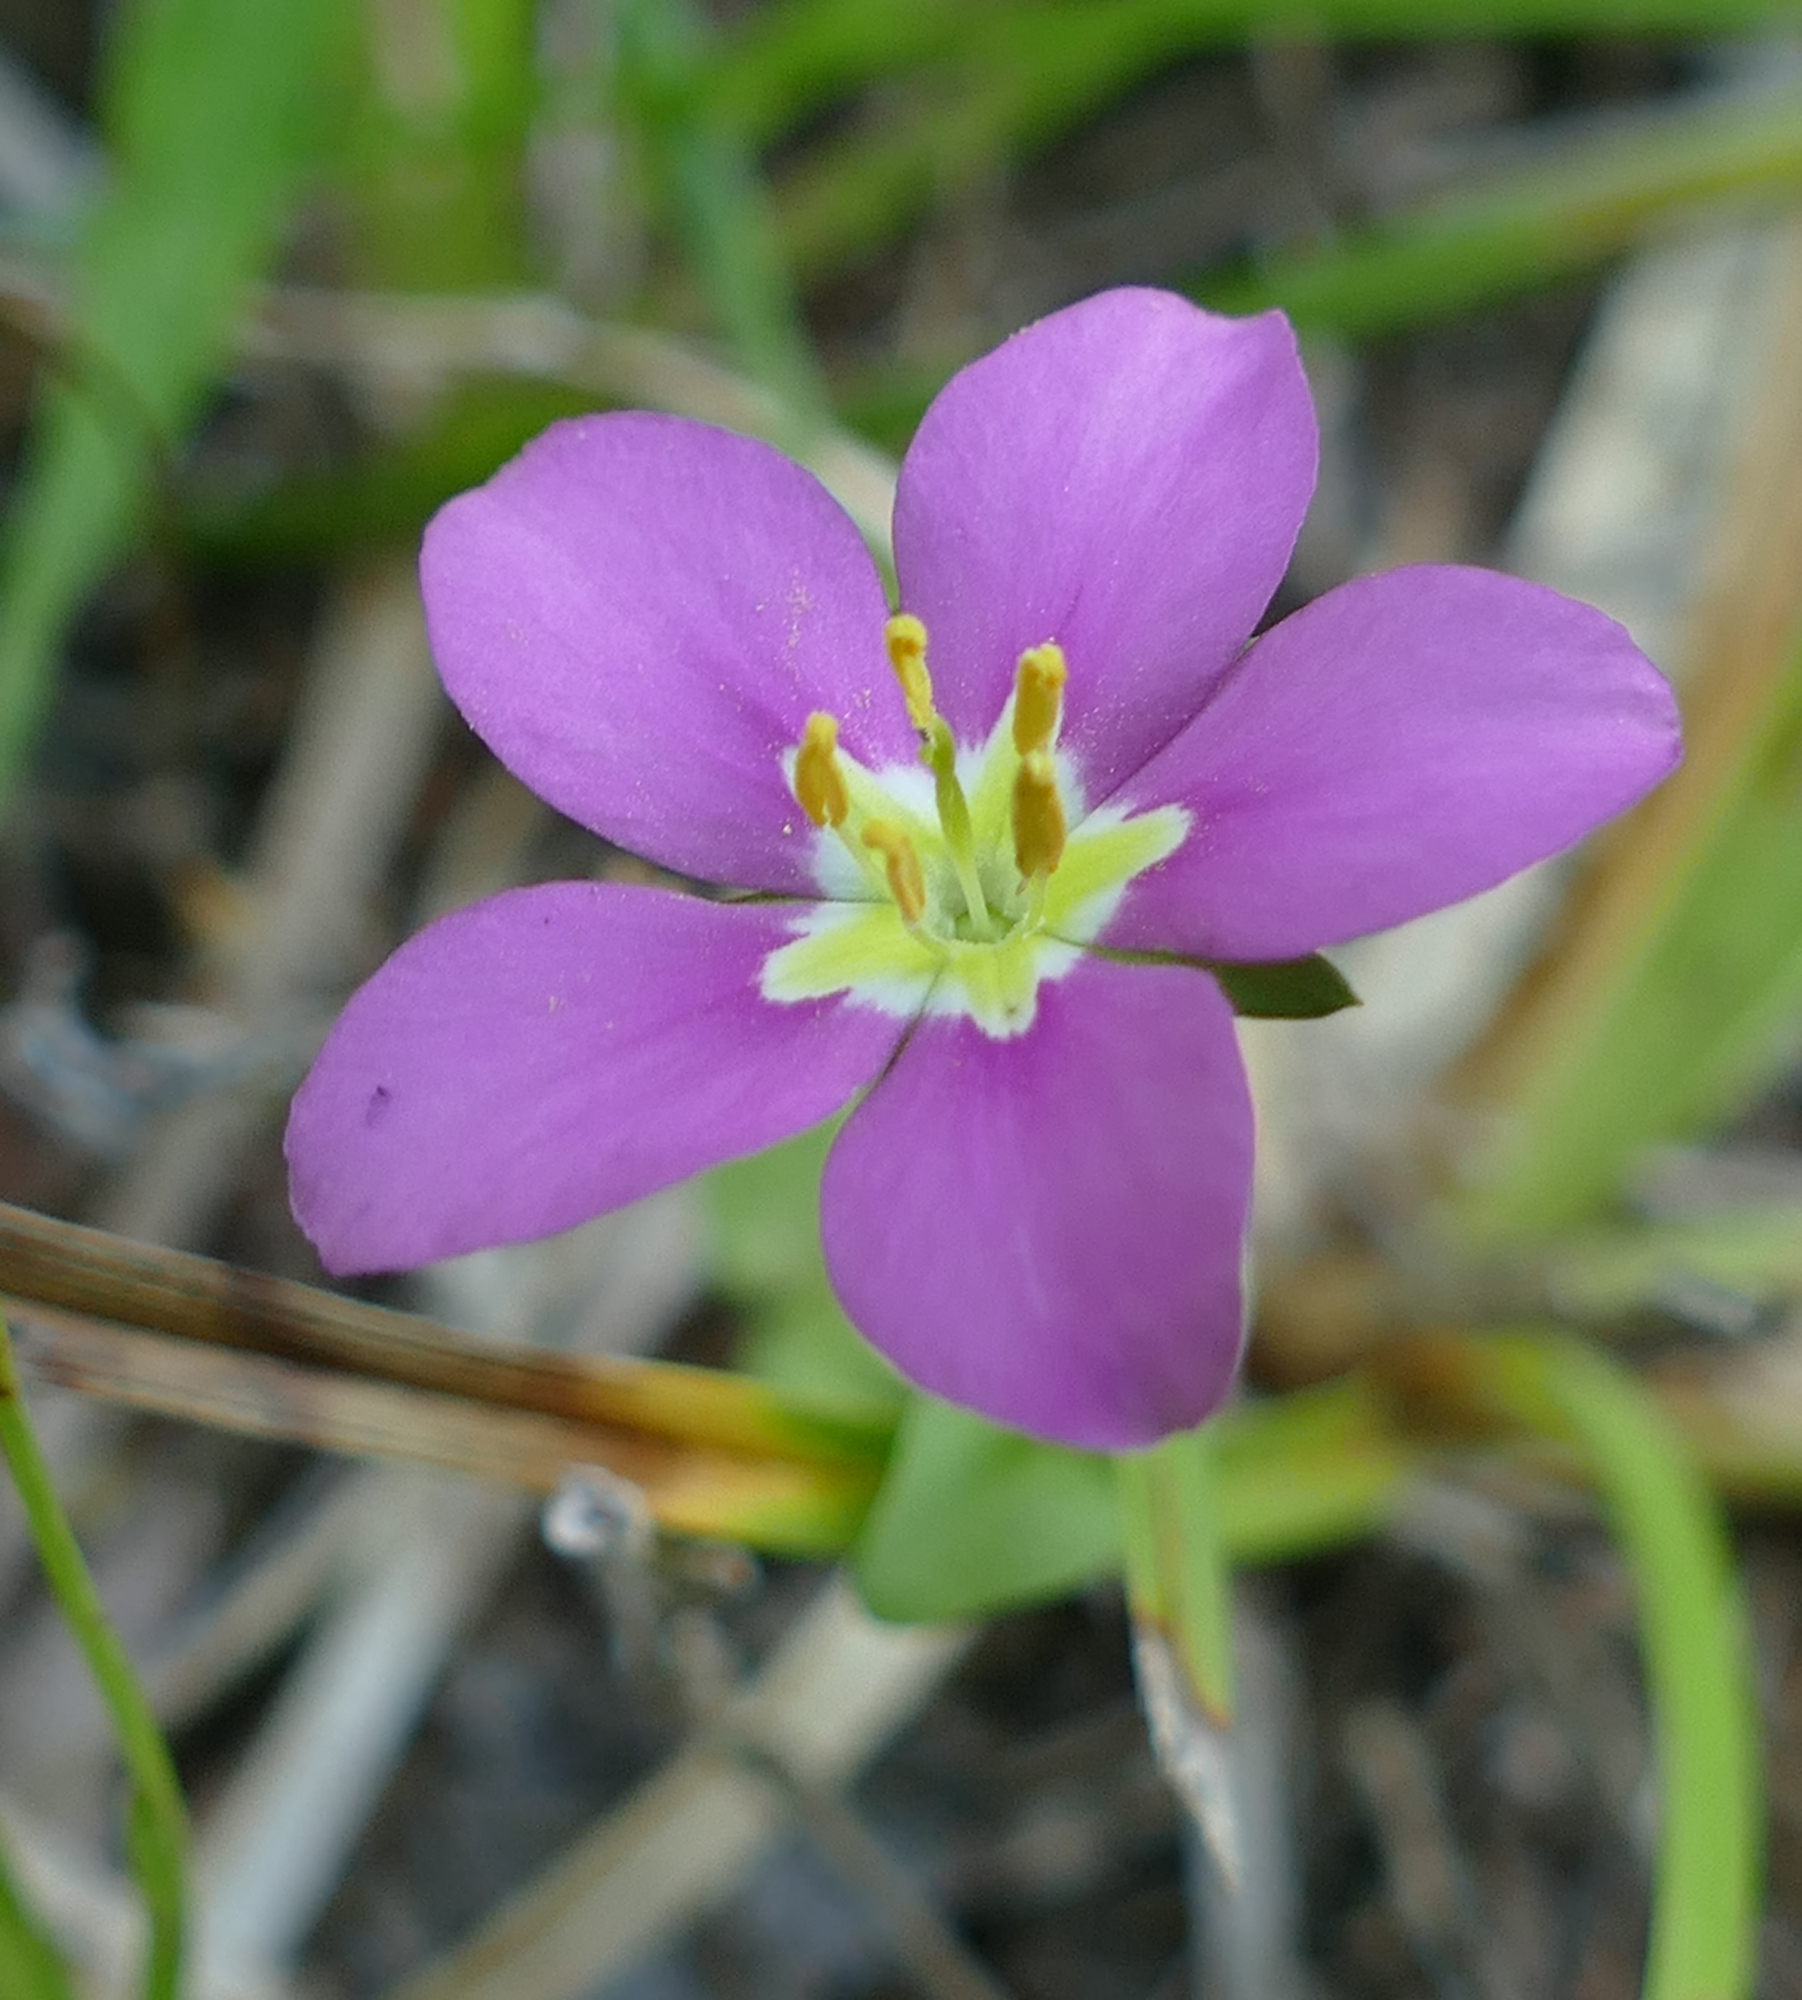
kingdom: Plantae
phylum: Tracheophyta
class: Magnoliopsida
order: Gentianales
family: Gentianaceae
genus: Sabatia
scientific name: Sabatia campestris
